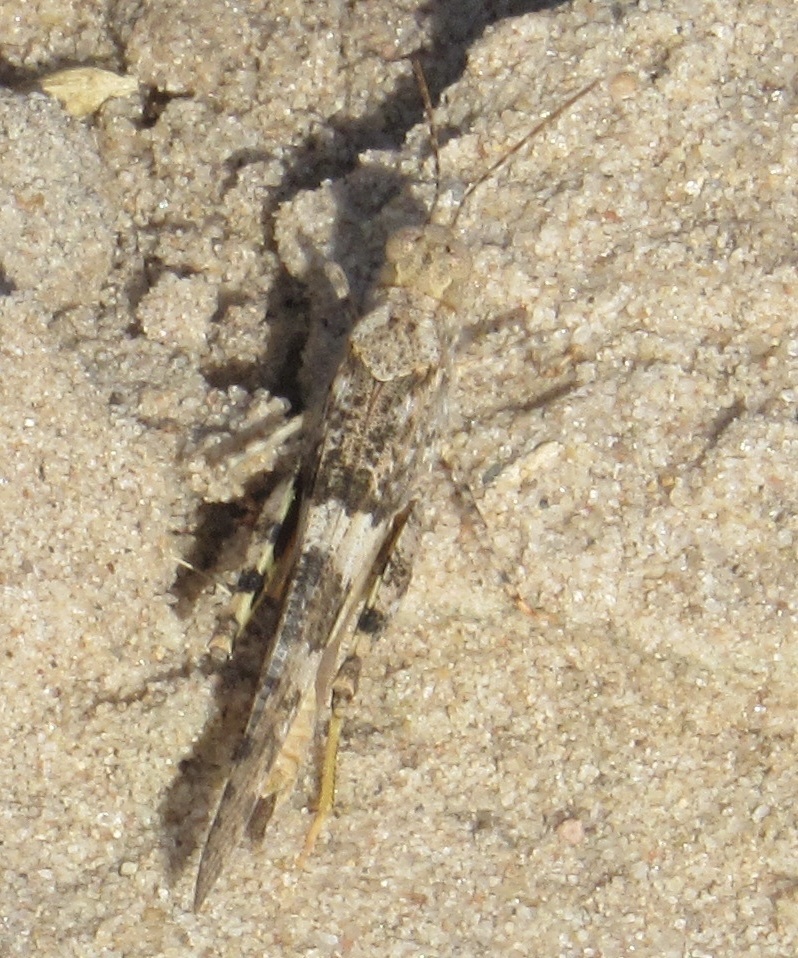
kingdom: Animalia
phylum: Arthropoda
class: Insecta
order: Orthoptera
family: Acrididae
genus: Trimerotropis
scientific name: Trimerotropis pallidipennis
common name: Pallid-winged grasshopper
